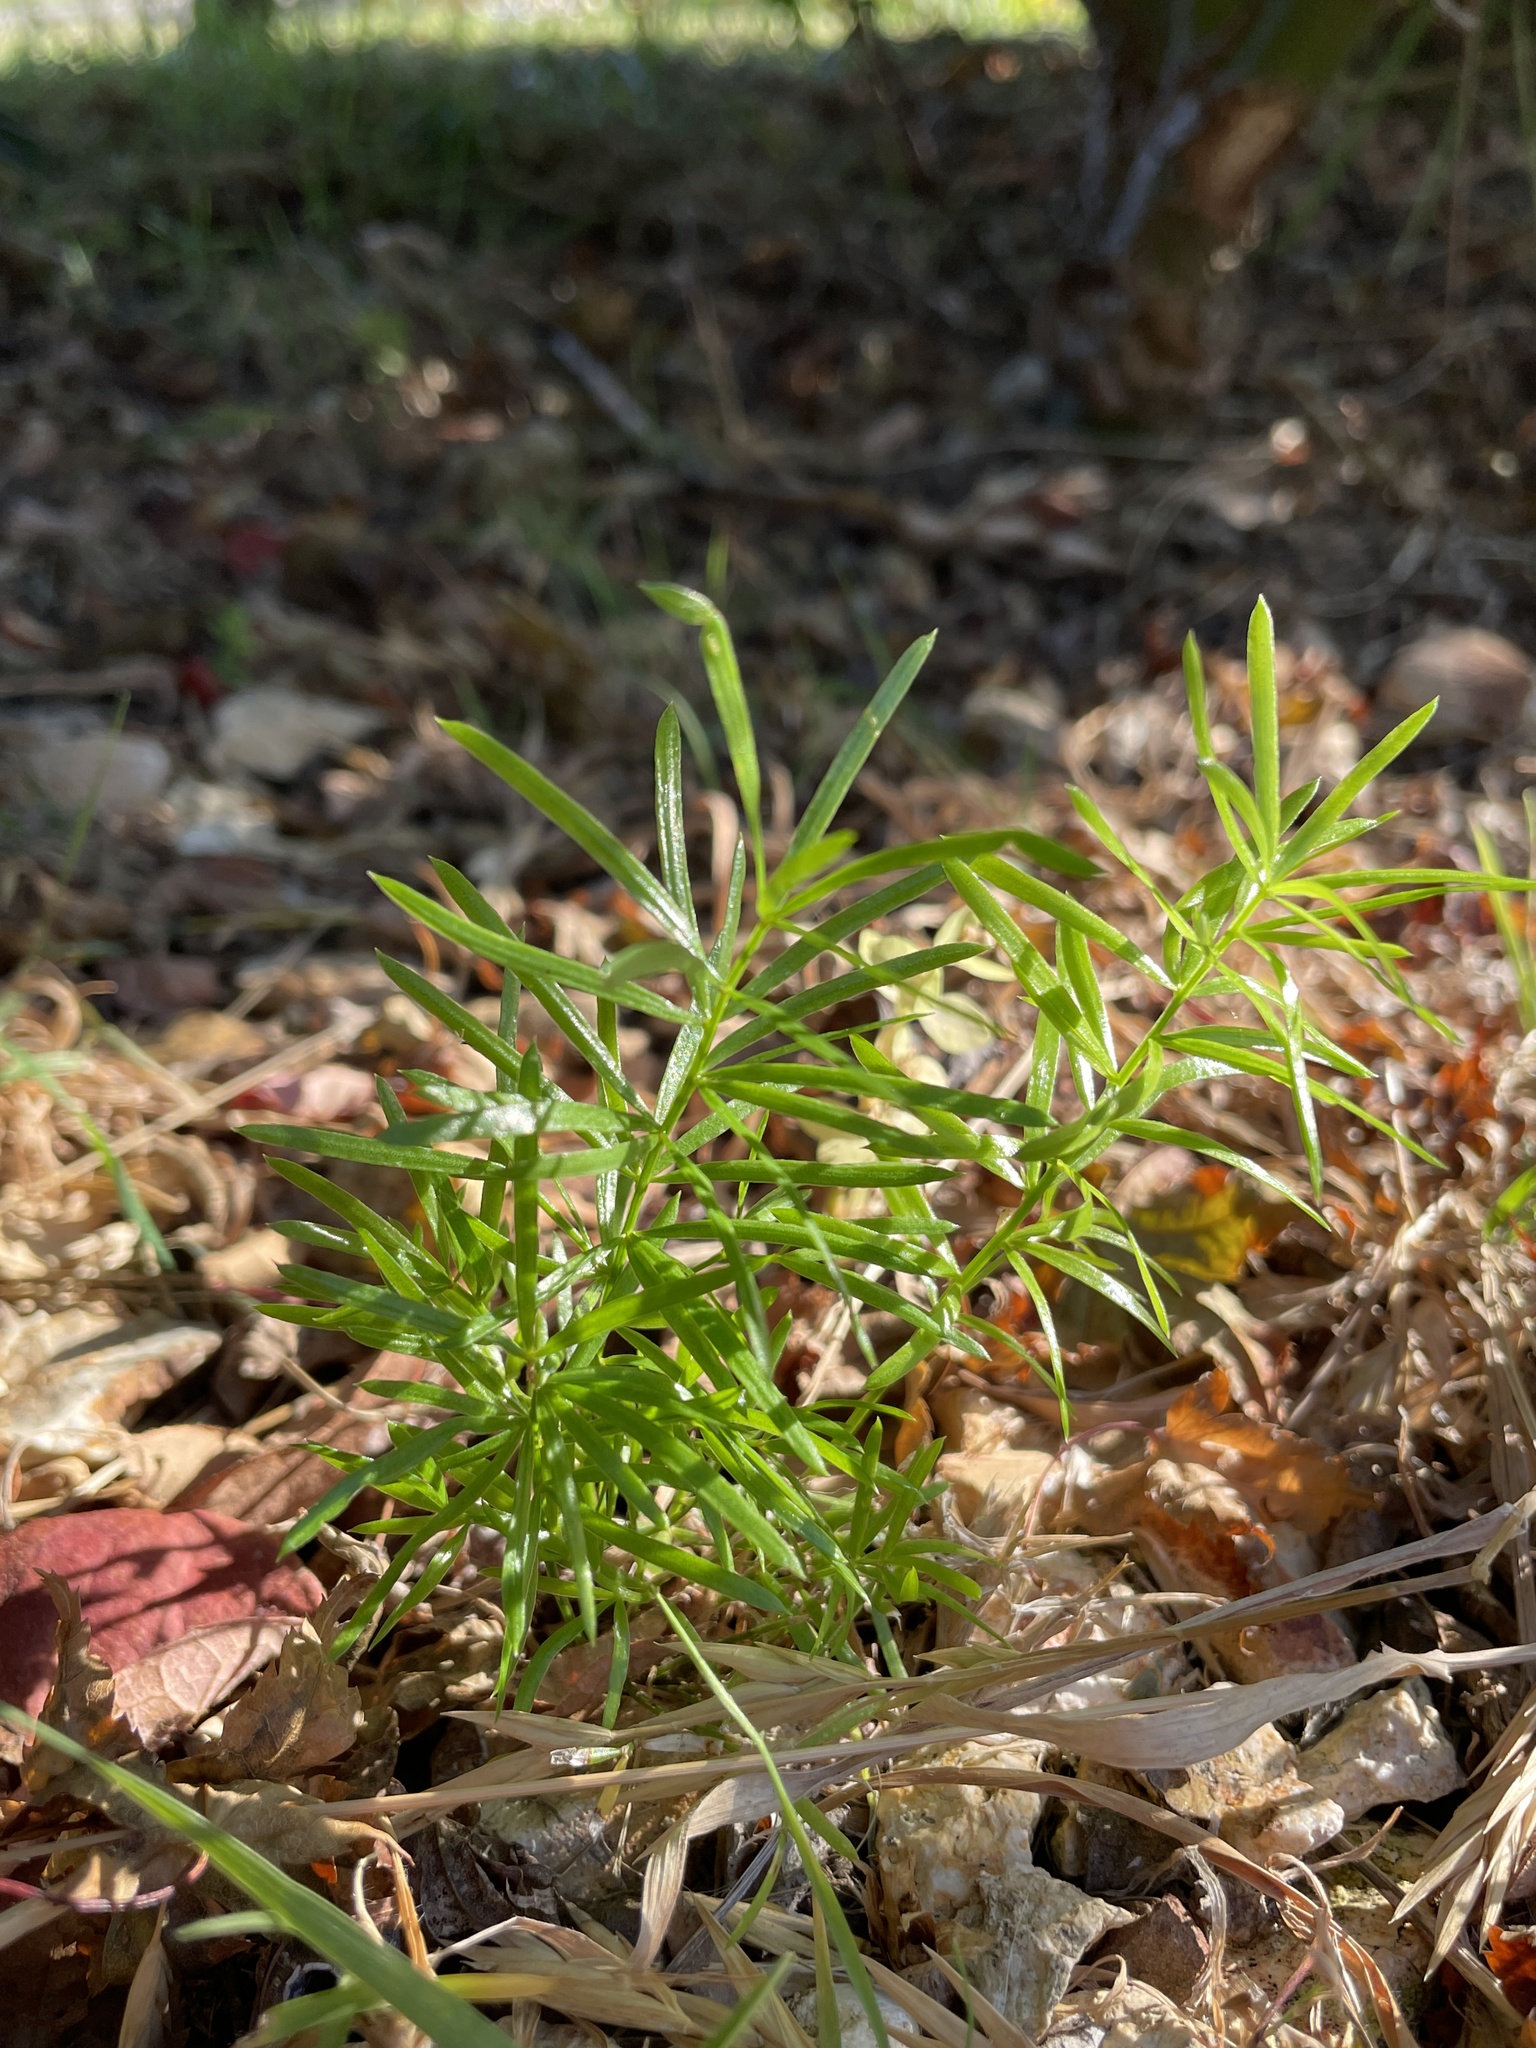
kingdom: Plantae
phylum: Tracheophyta
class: Liliopsida
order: Asparagales
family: Asparagaceae
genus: Asparagus
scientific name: Asparagus aethiopicus
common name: Sprenger's asparagus fern
